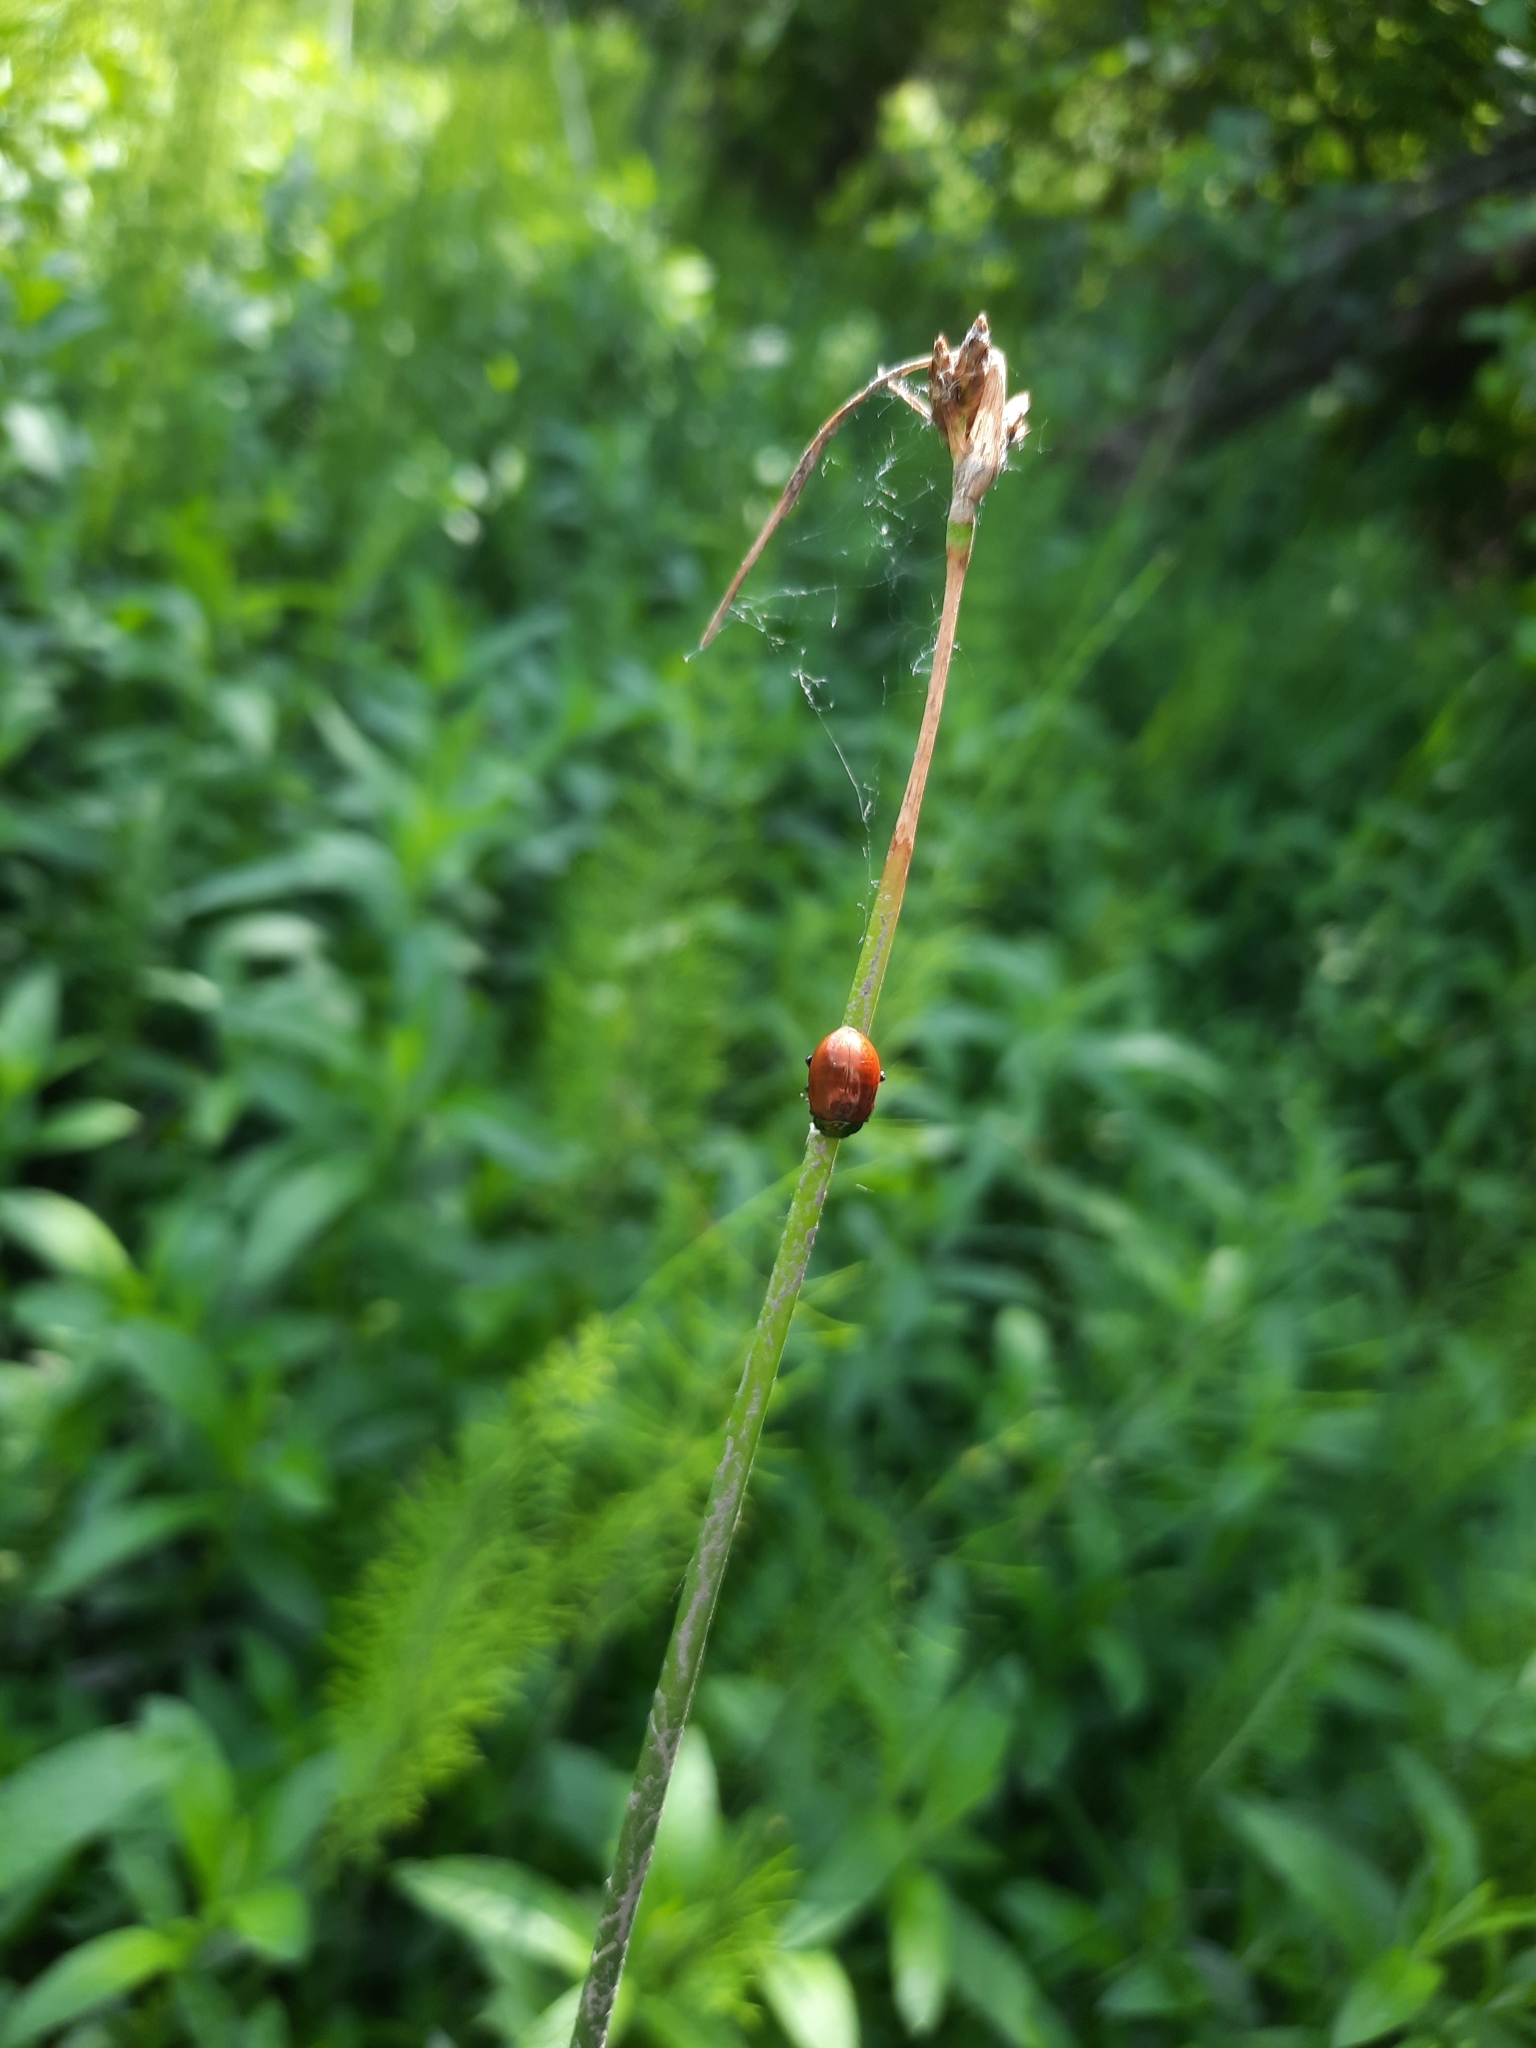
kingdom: Animalia
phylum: Arthropoda
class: Insecta
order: Coleoptera
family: Chrysomelidae
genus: Chrysomela
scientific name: Chrysomela polita
